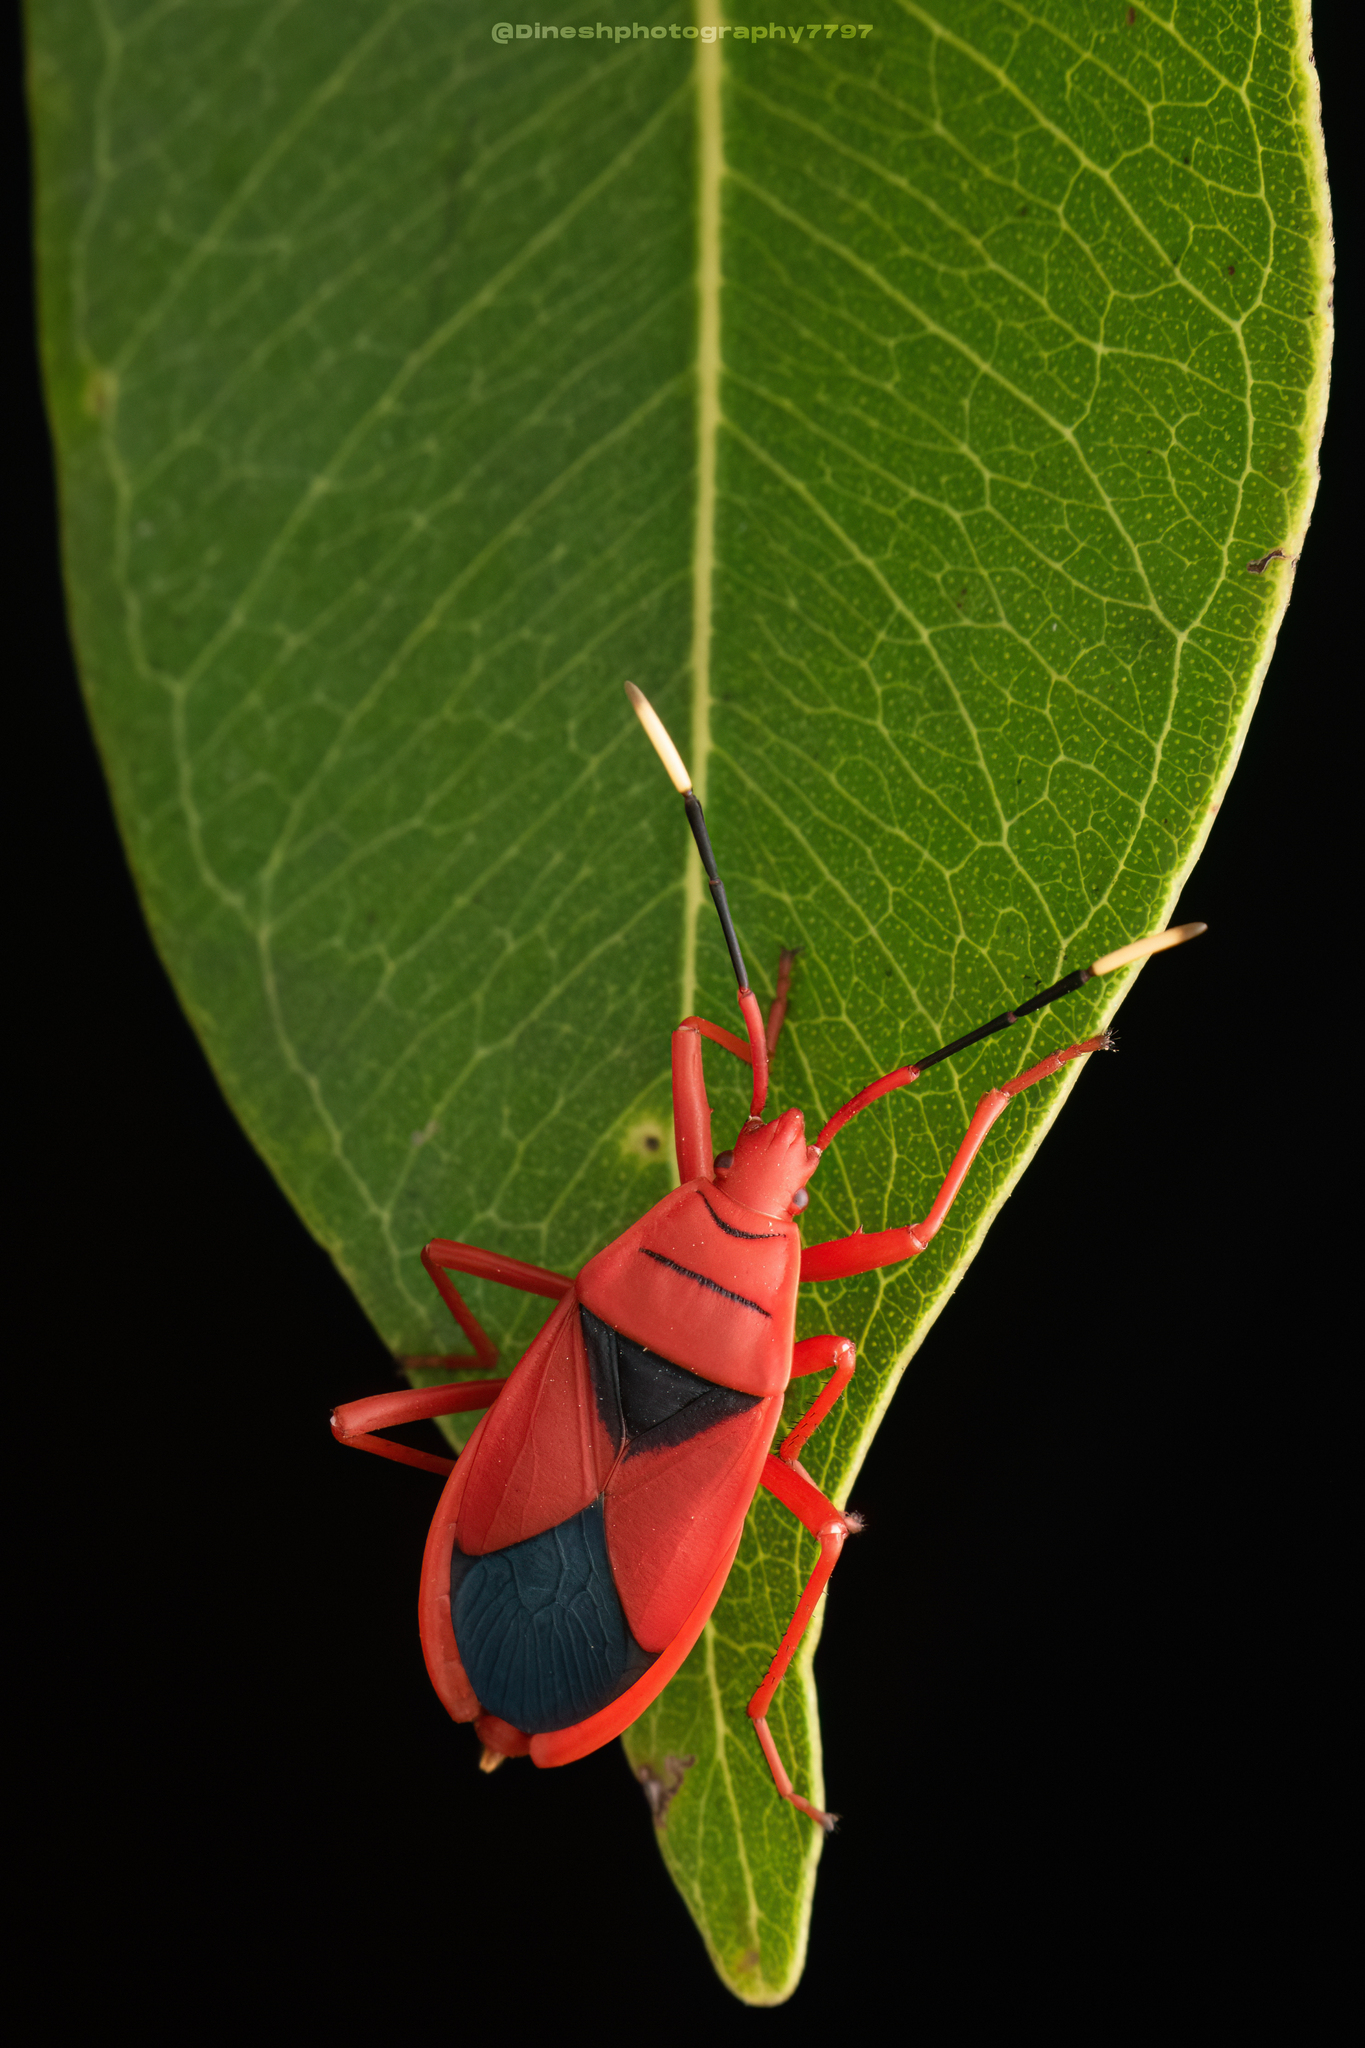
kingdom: Animalia
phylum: Arthropoda
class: Insecta
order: Hemiptera
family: Pyrrhocoridae
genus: Probergrothius
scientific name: Probergrothius
